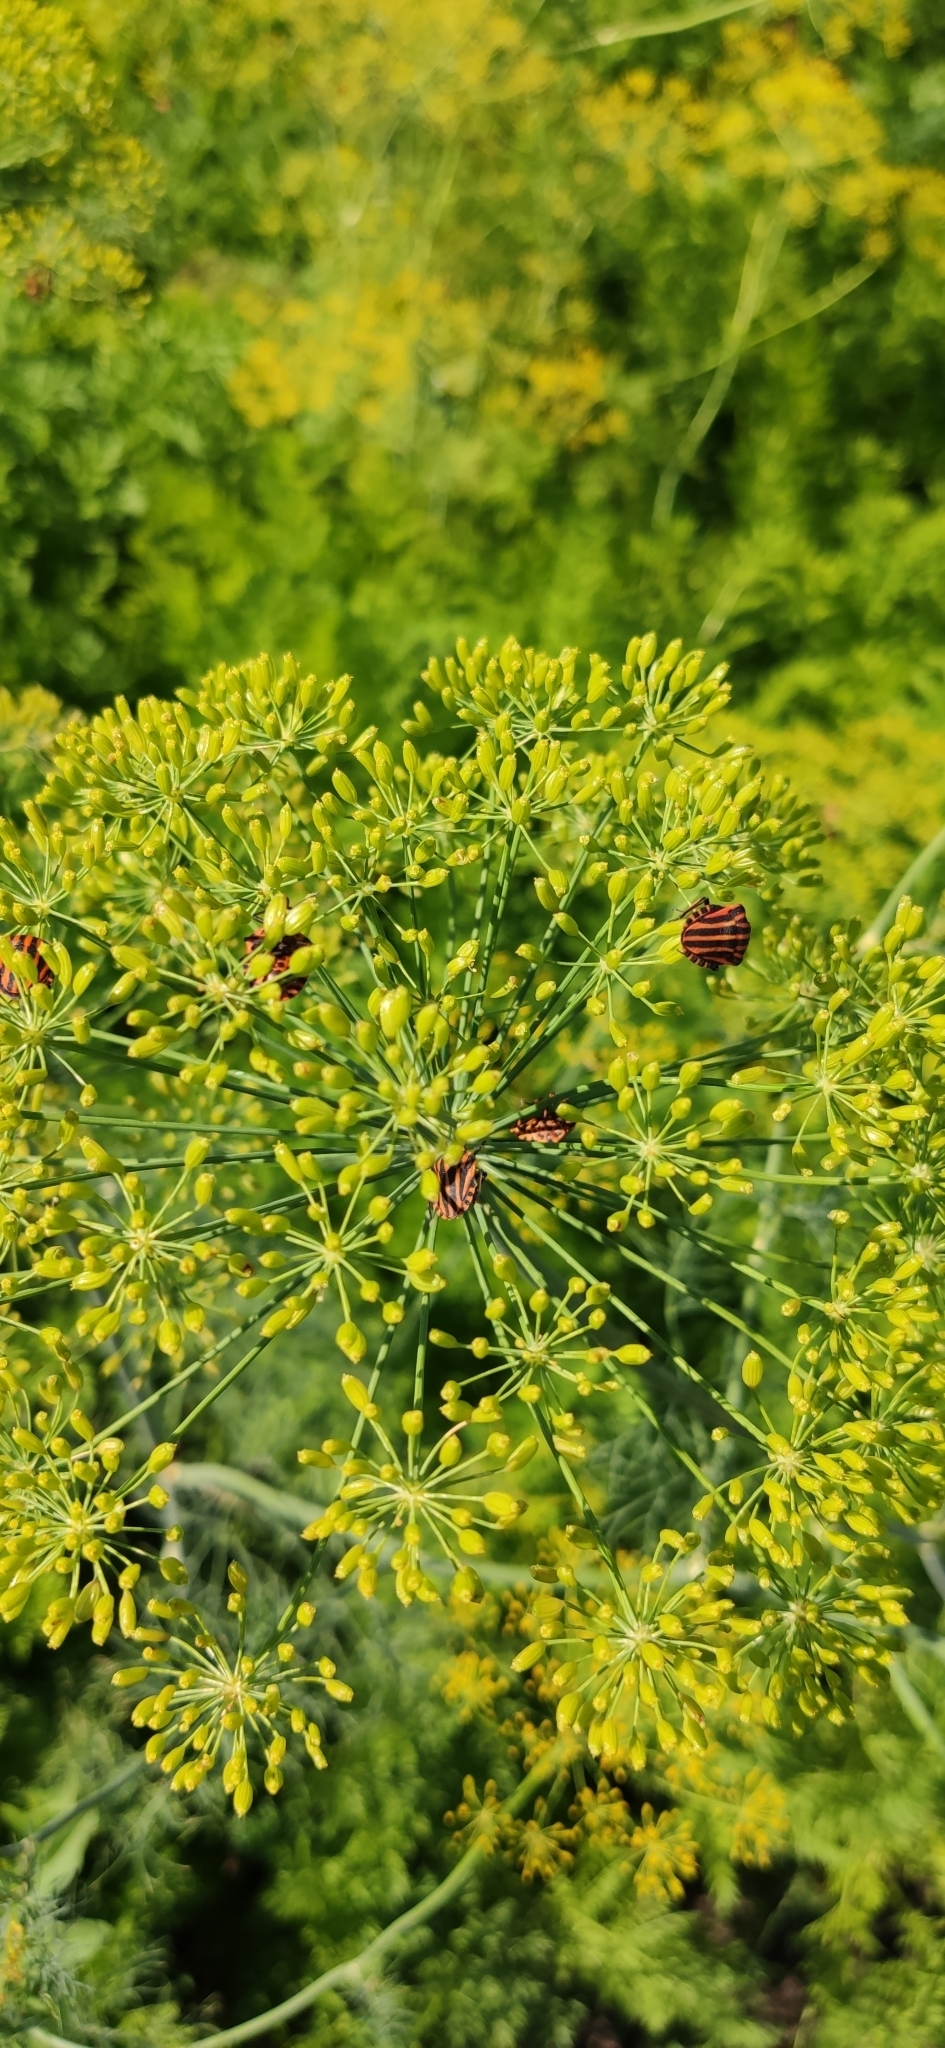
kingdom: Animalia
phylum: Arthropoda
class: Insecta
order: Hemiptera
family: Pentatomidae
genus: Graphosoma
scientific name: Graphosoma italicum
